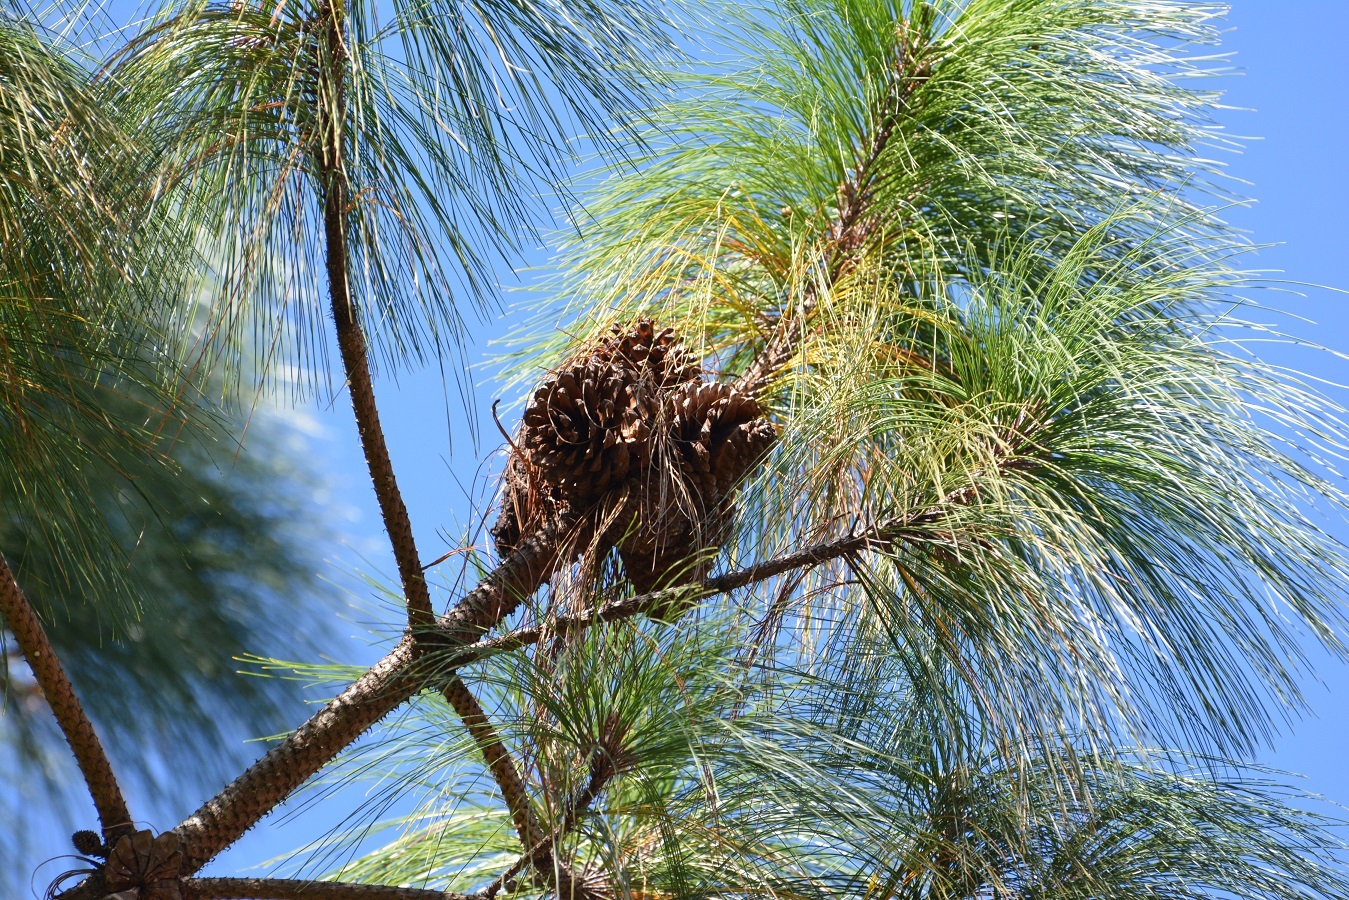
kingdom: Plantae
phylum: Tracheophyta
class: Pinopsida
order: Pinales
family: Pinaceae
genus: Pinus
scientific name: Pinus pseudostrobus
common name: False weymouth pine
